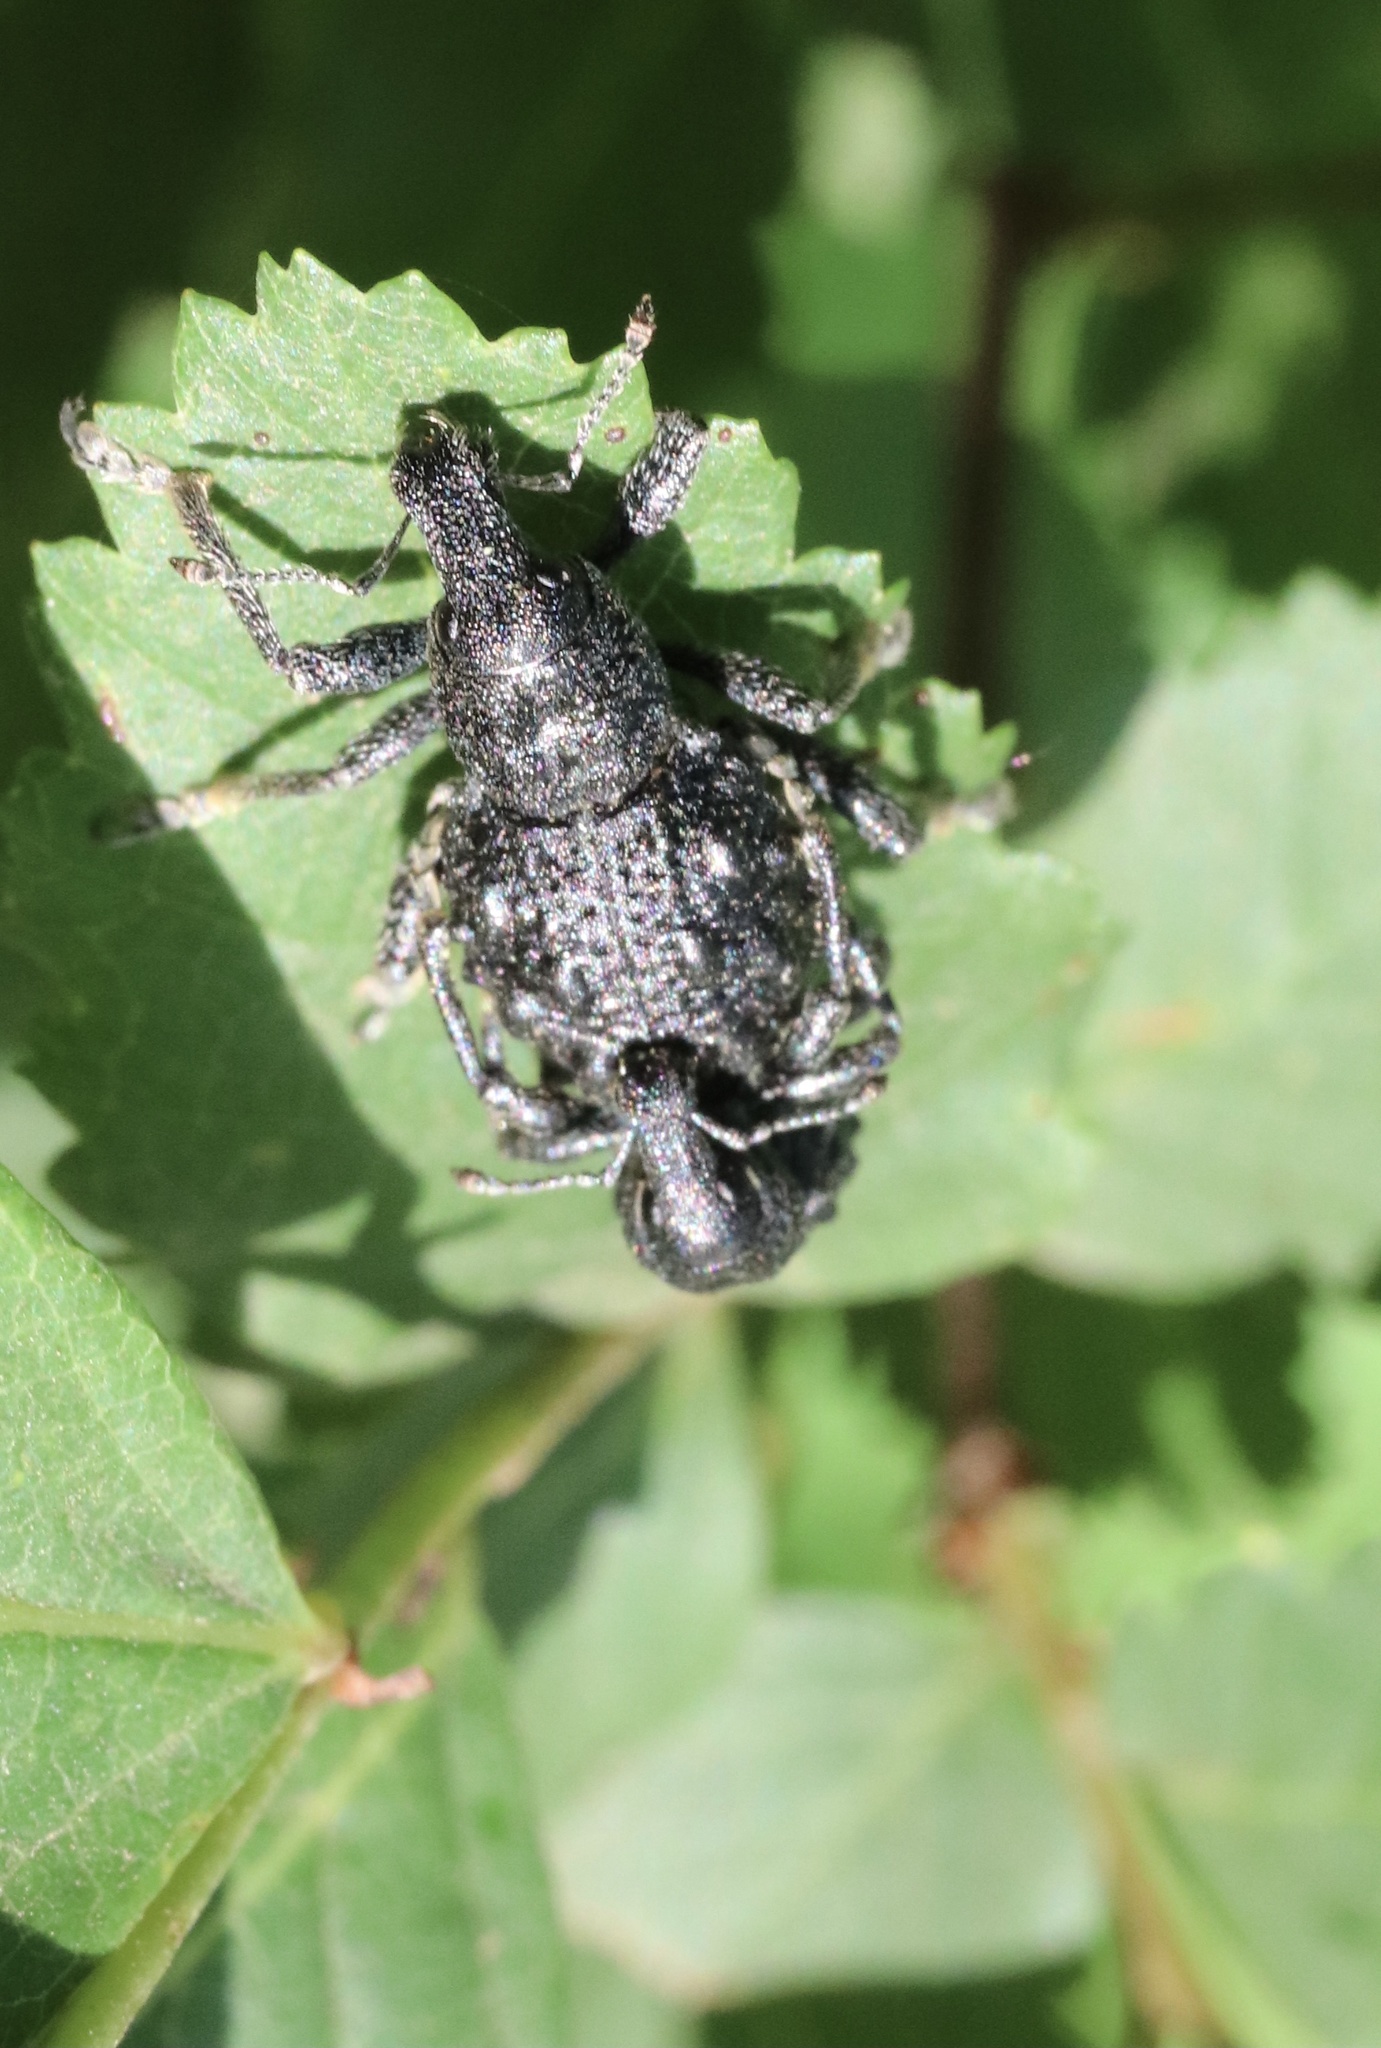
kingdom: Animalia
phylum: Arthropoda
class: Insecta
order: Coleoptera
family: Curculionidae
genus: Megalometis
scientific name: Megalometis spiniferus
